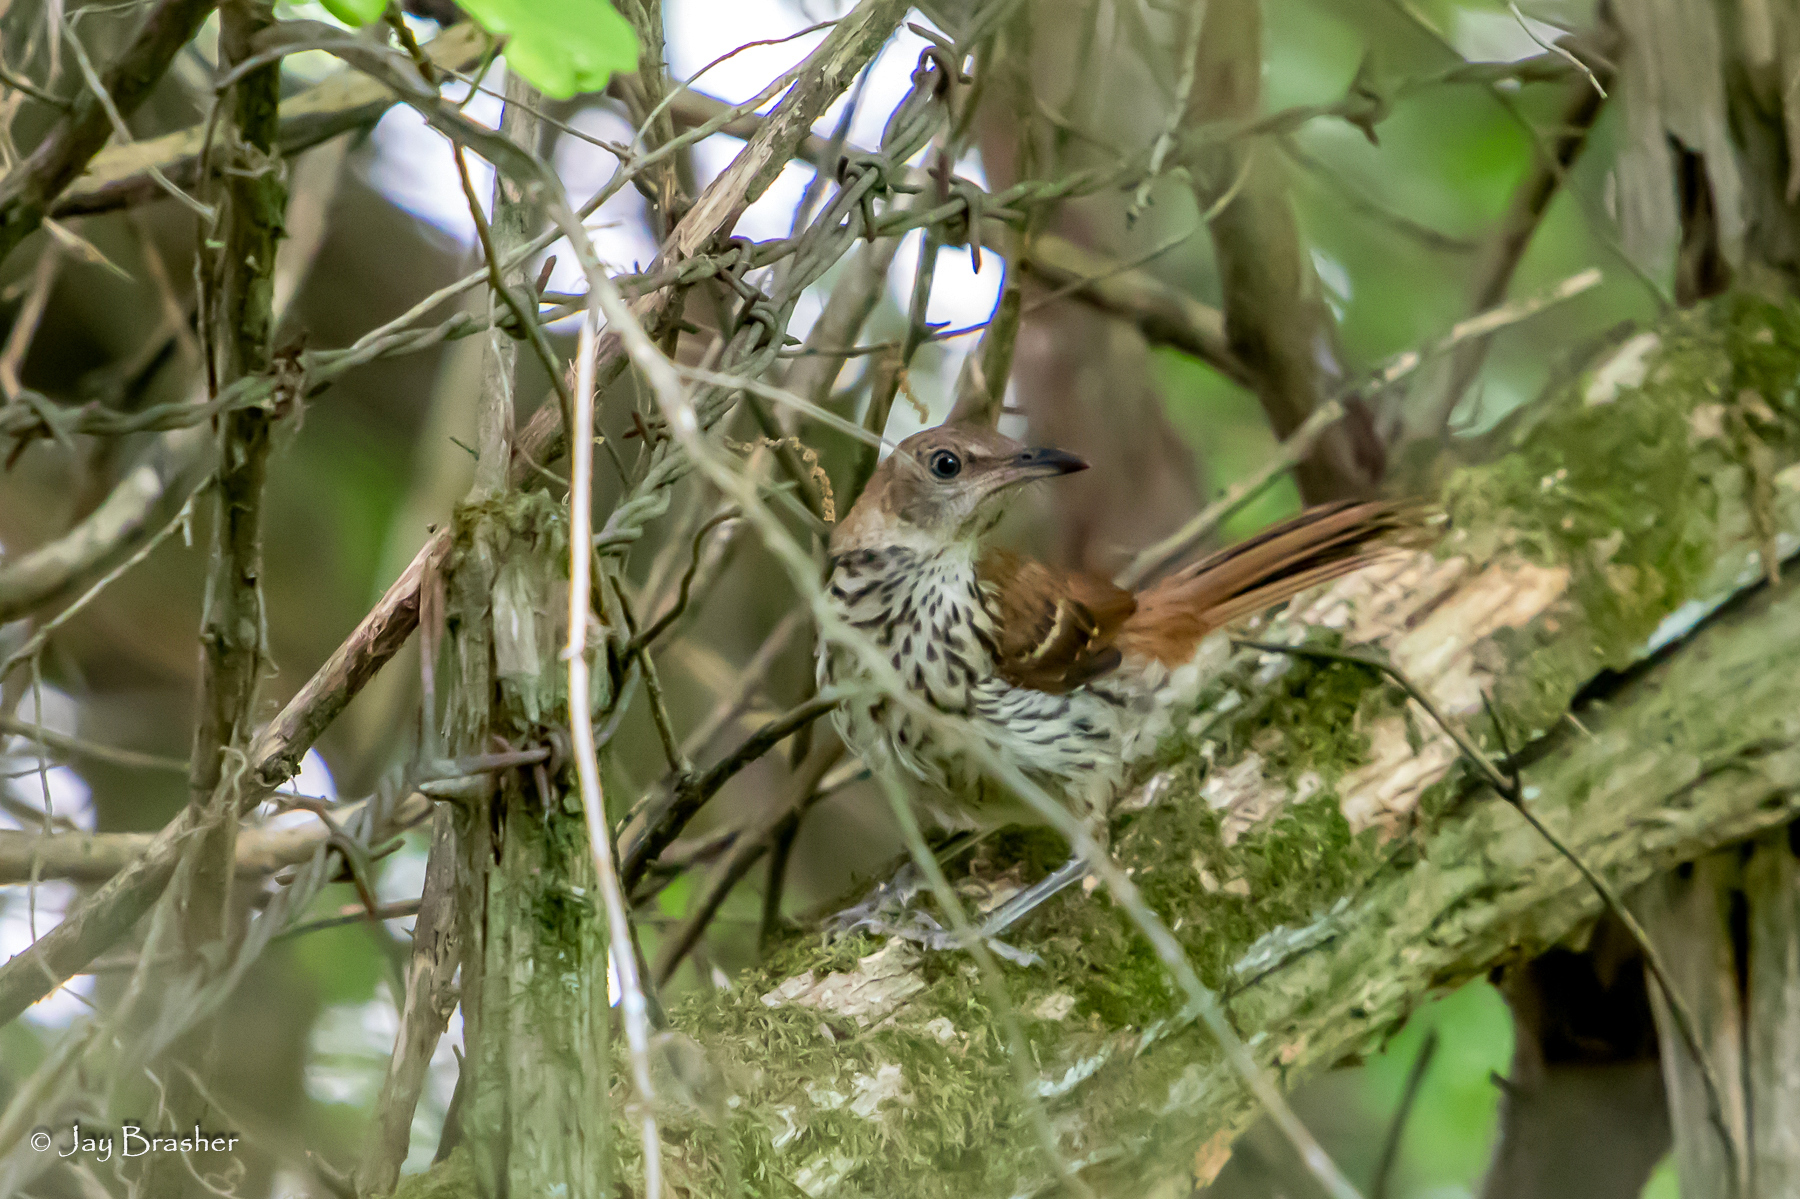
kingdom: Animalia
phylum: Chordata
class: Aves
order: Passeriformes
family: Mimidae
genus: Toxostoma
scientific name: Toxostoma rufum
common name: Brown thrasher
